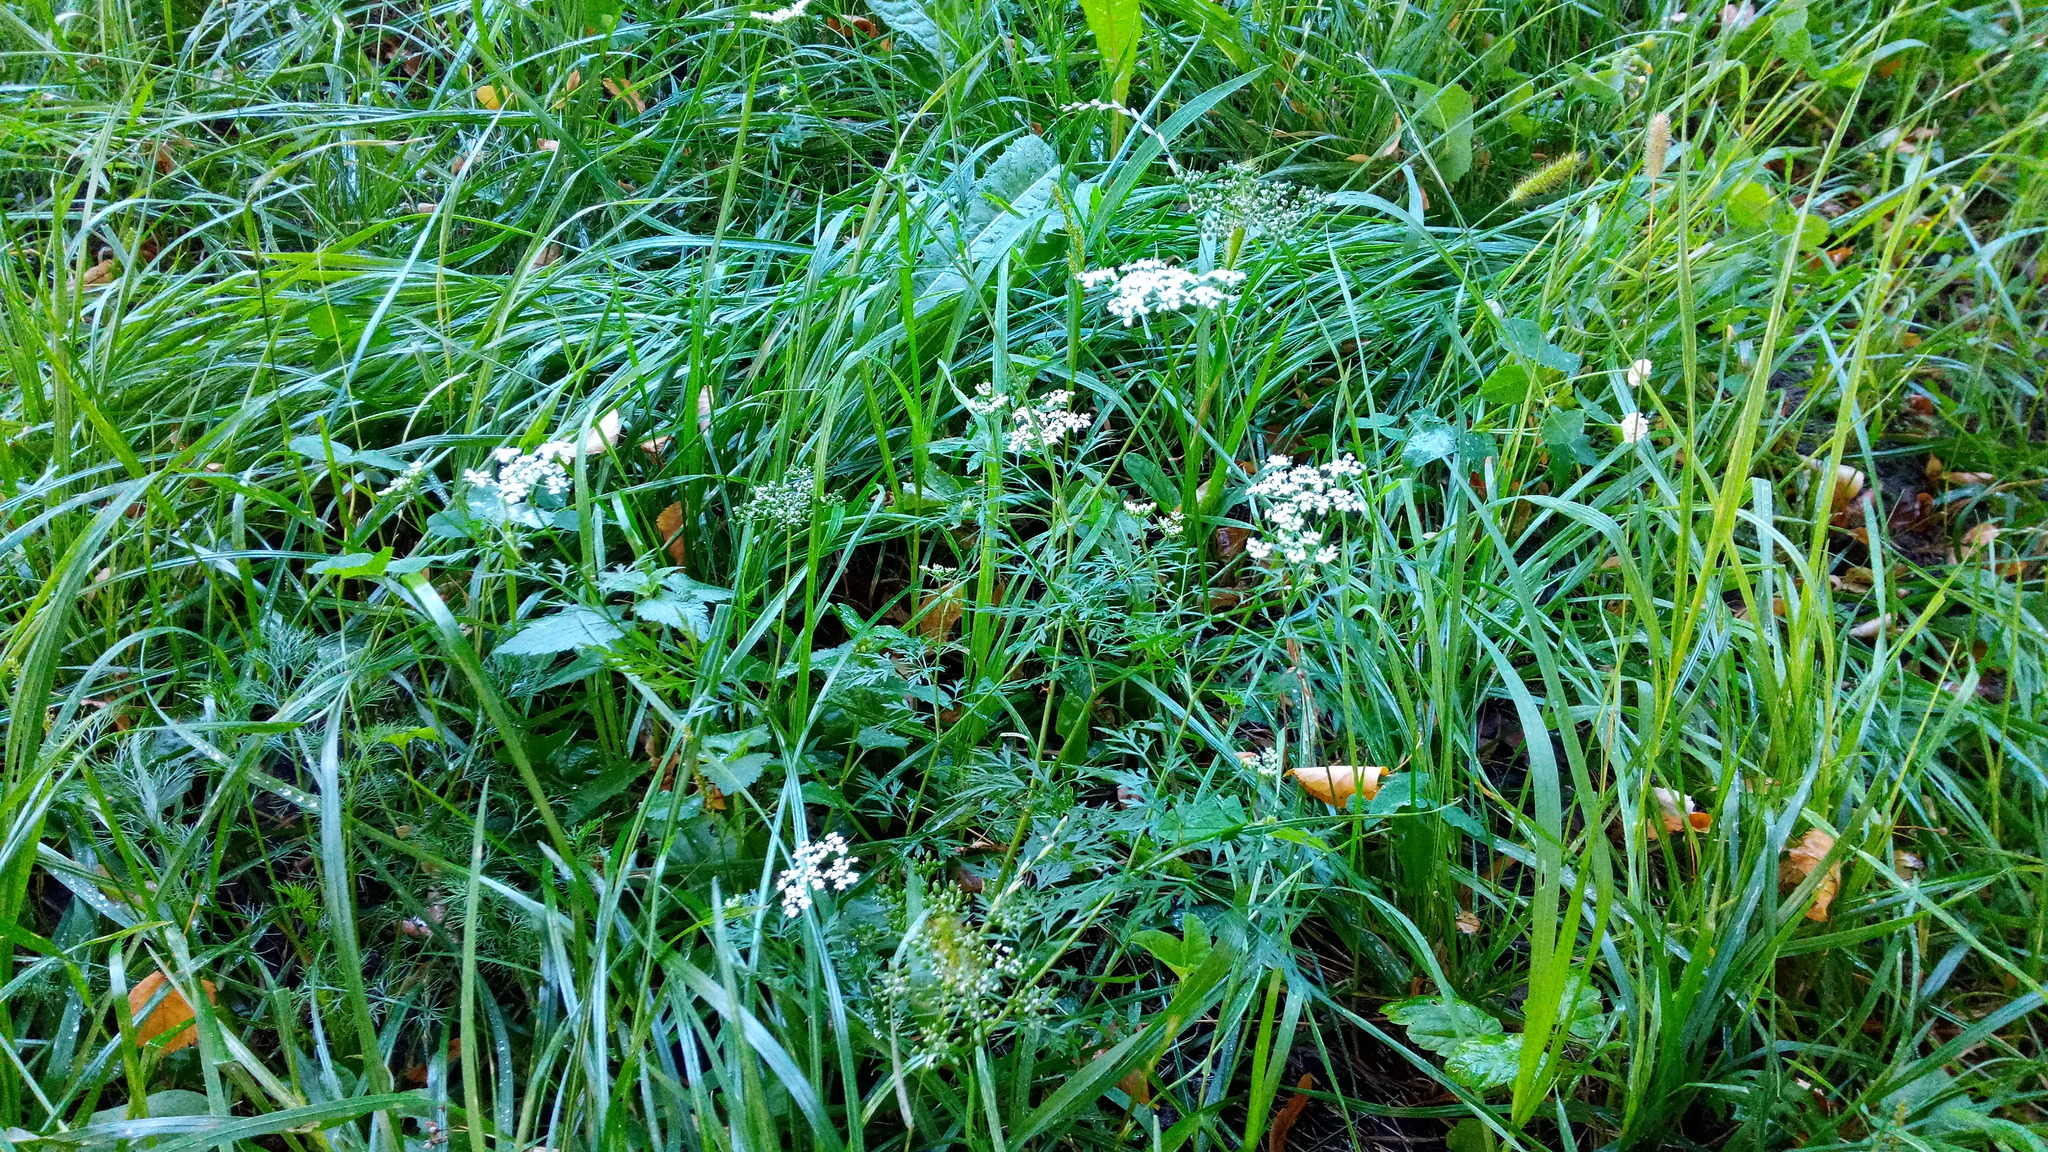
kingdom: Plantae
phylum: Tracheophyta
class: Magnoliopsida
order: Apiales
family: Apiaceae
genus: Aethusa
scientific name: Aethusa cynapium
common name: Fool's parsley
